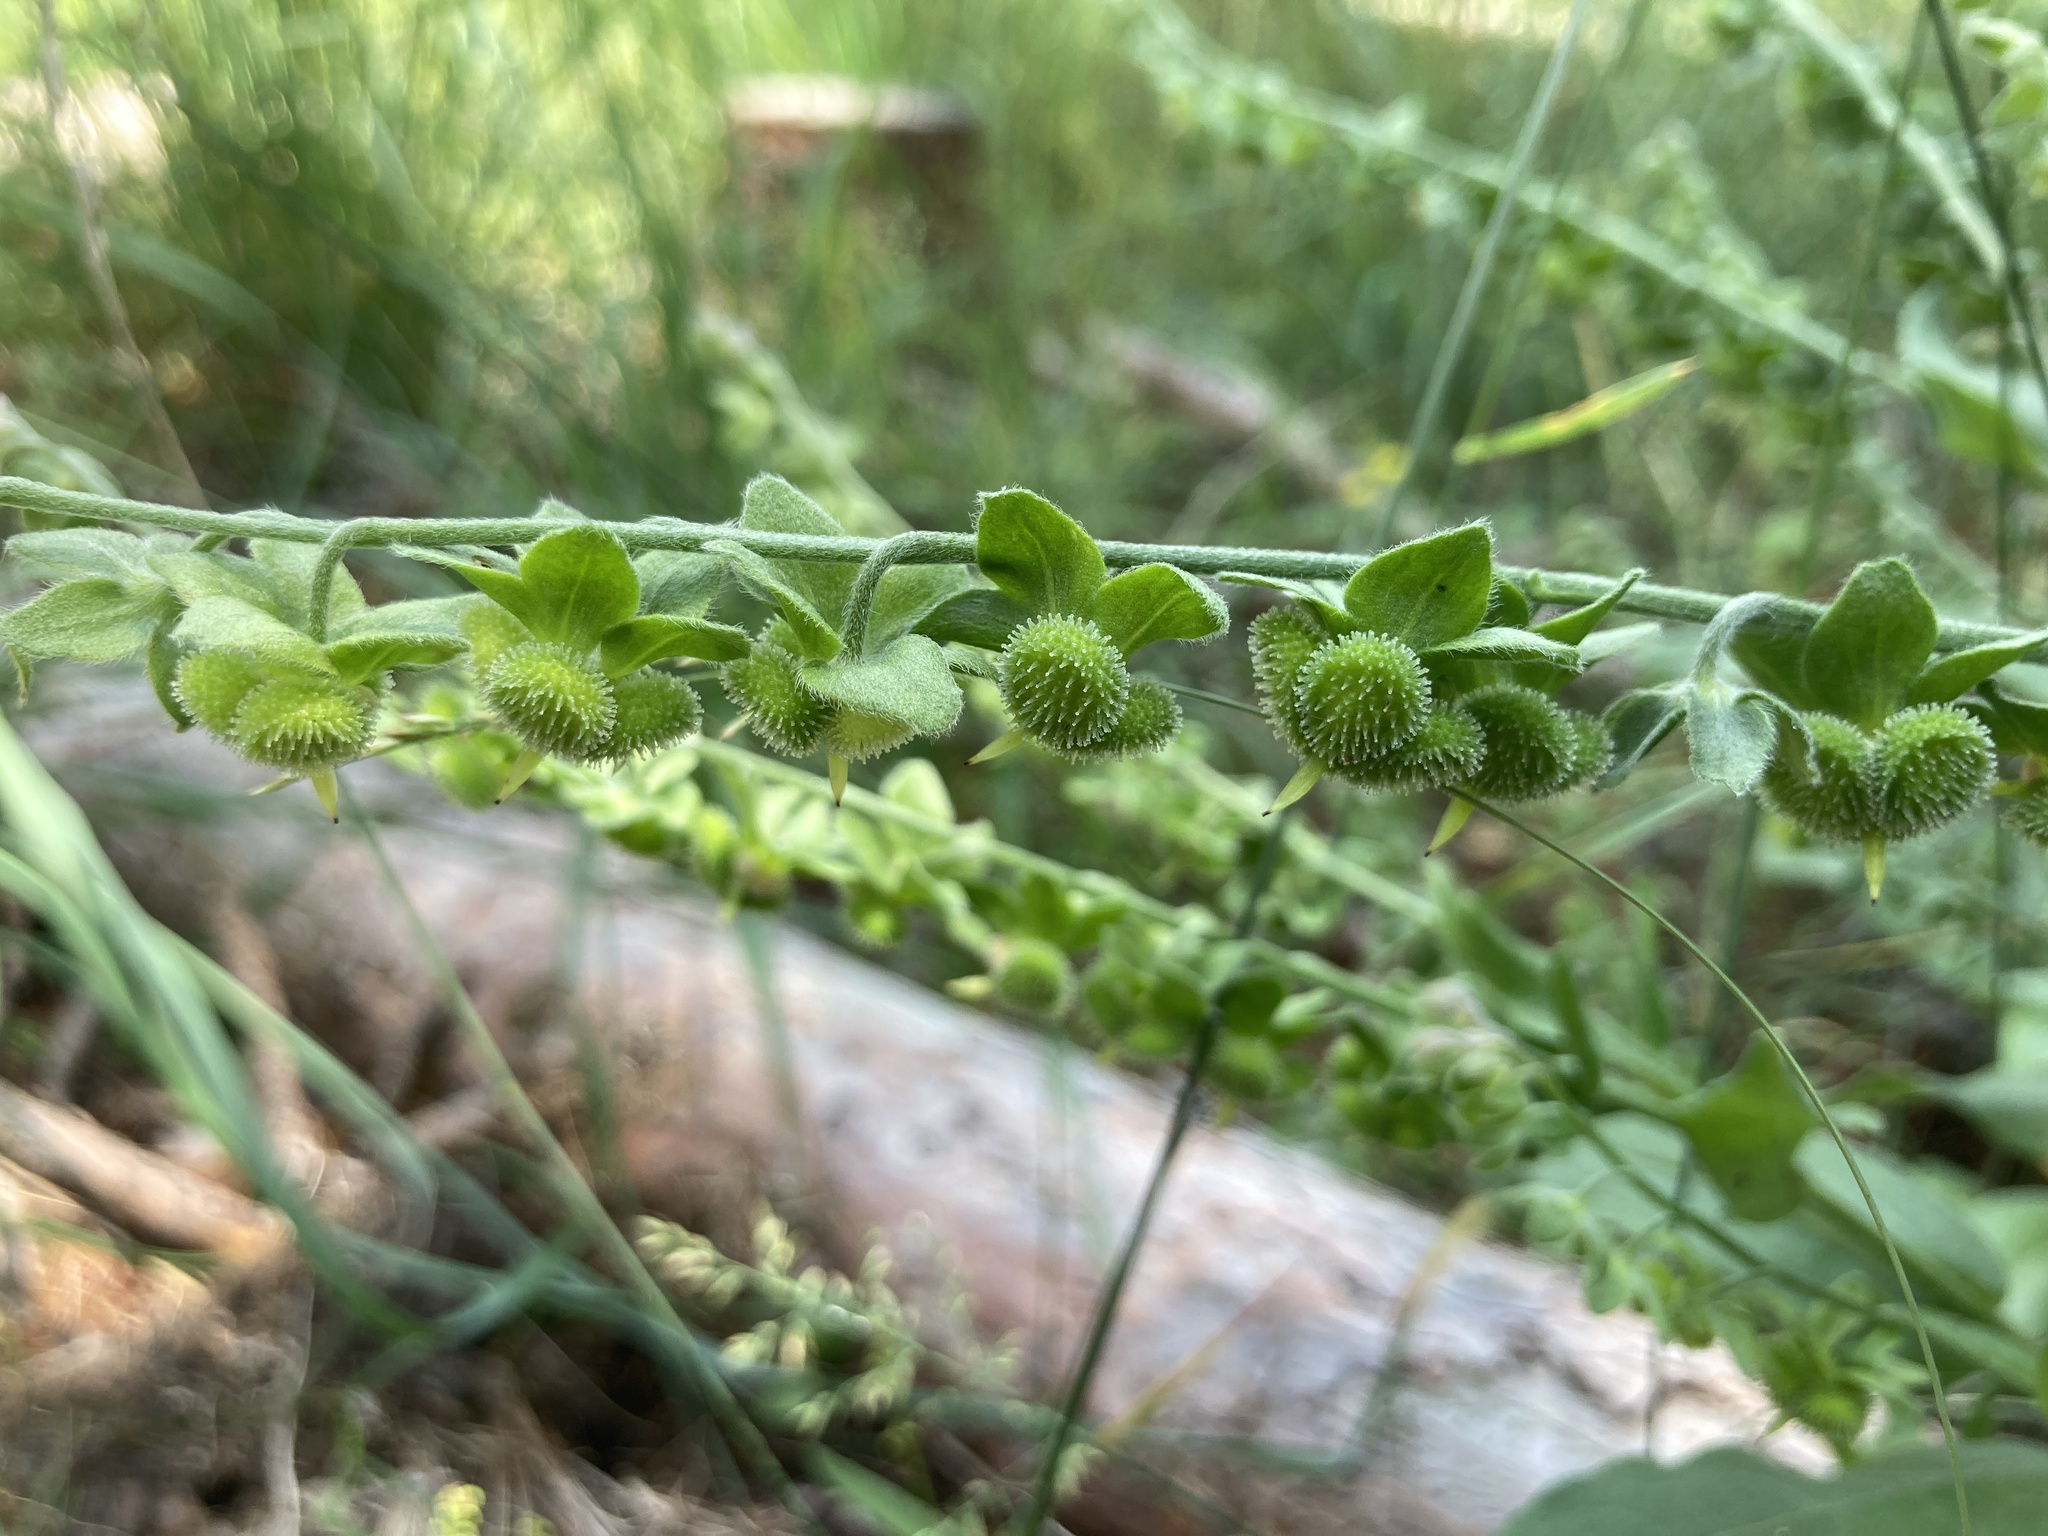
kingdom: Plantae
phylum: Tracheophyta
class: Magnoliopsida
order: Boraginales
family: Boraginaceae
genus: Hackelia
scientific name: Hackelia virginiana
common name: Beggar's-lice
